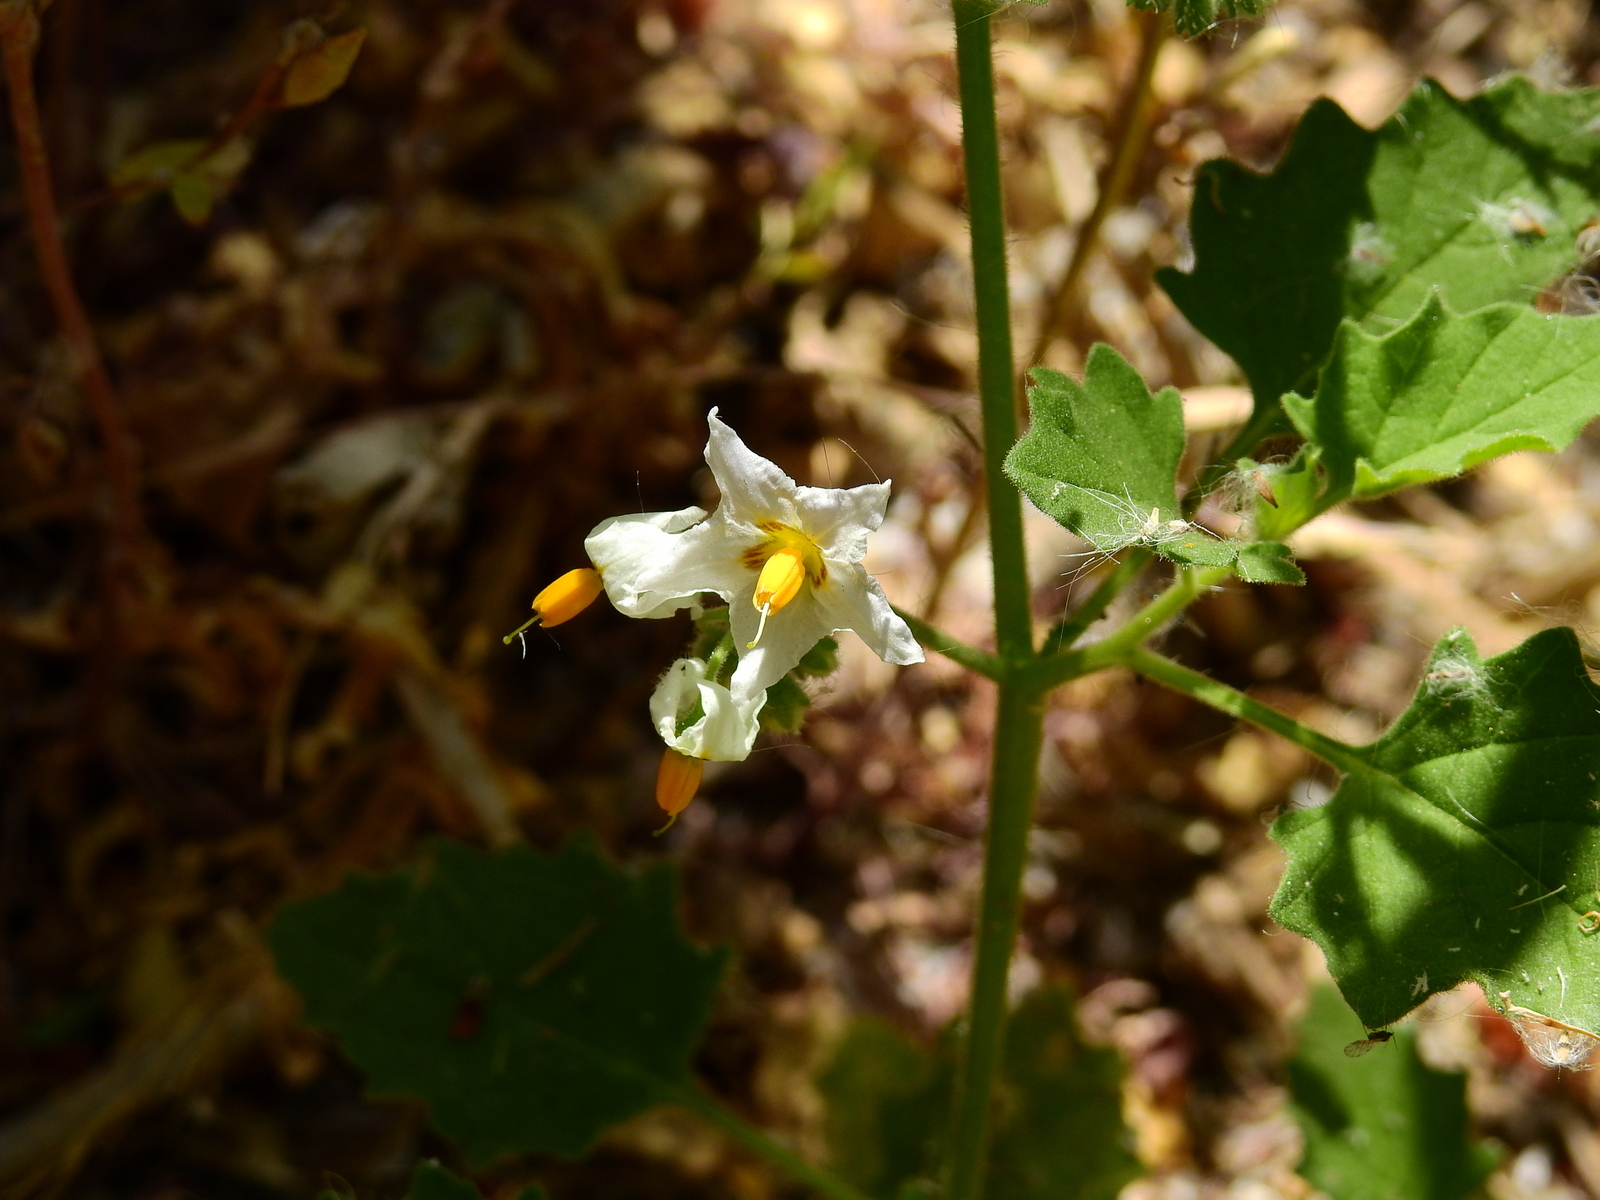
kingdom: Plantae
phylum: Tracheophyta
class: Magnoliopsida
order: Solanales
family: Solanaceae
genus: Solanum
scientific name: Solanum tweedianum
